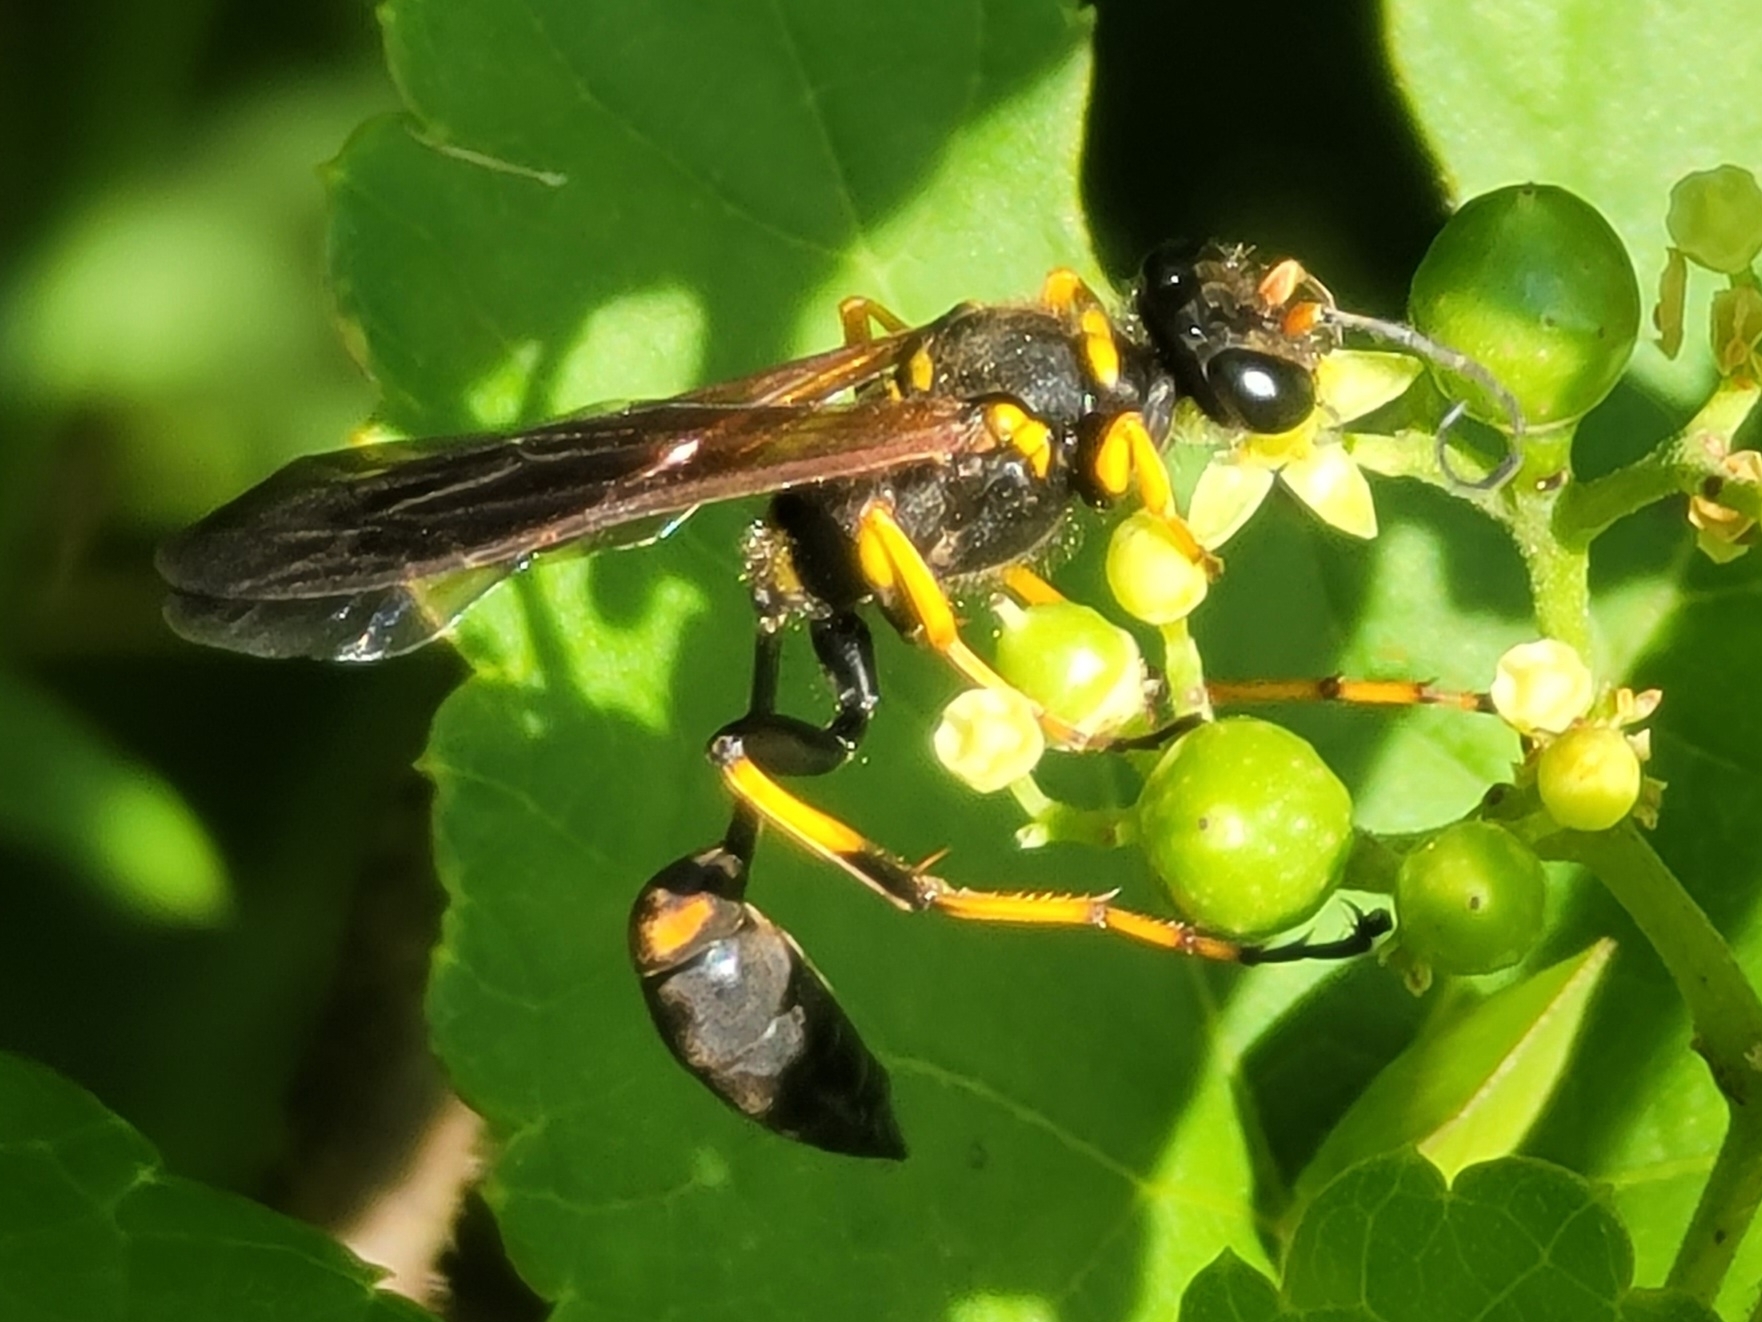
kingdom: Animalia
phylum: Arthropoda
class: Insecta
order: Hymenoptera
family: Sphecidae
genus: Sceliphron
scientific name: Sceliphron caementarium
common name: Mud dauber
